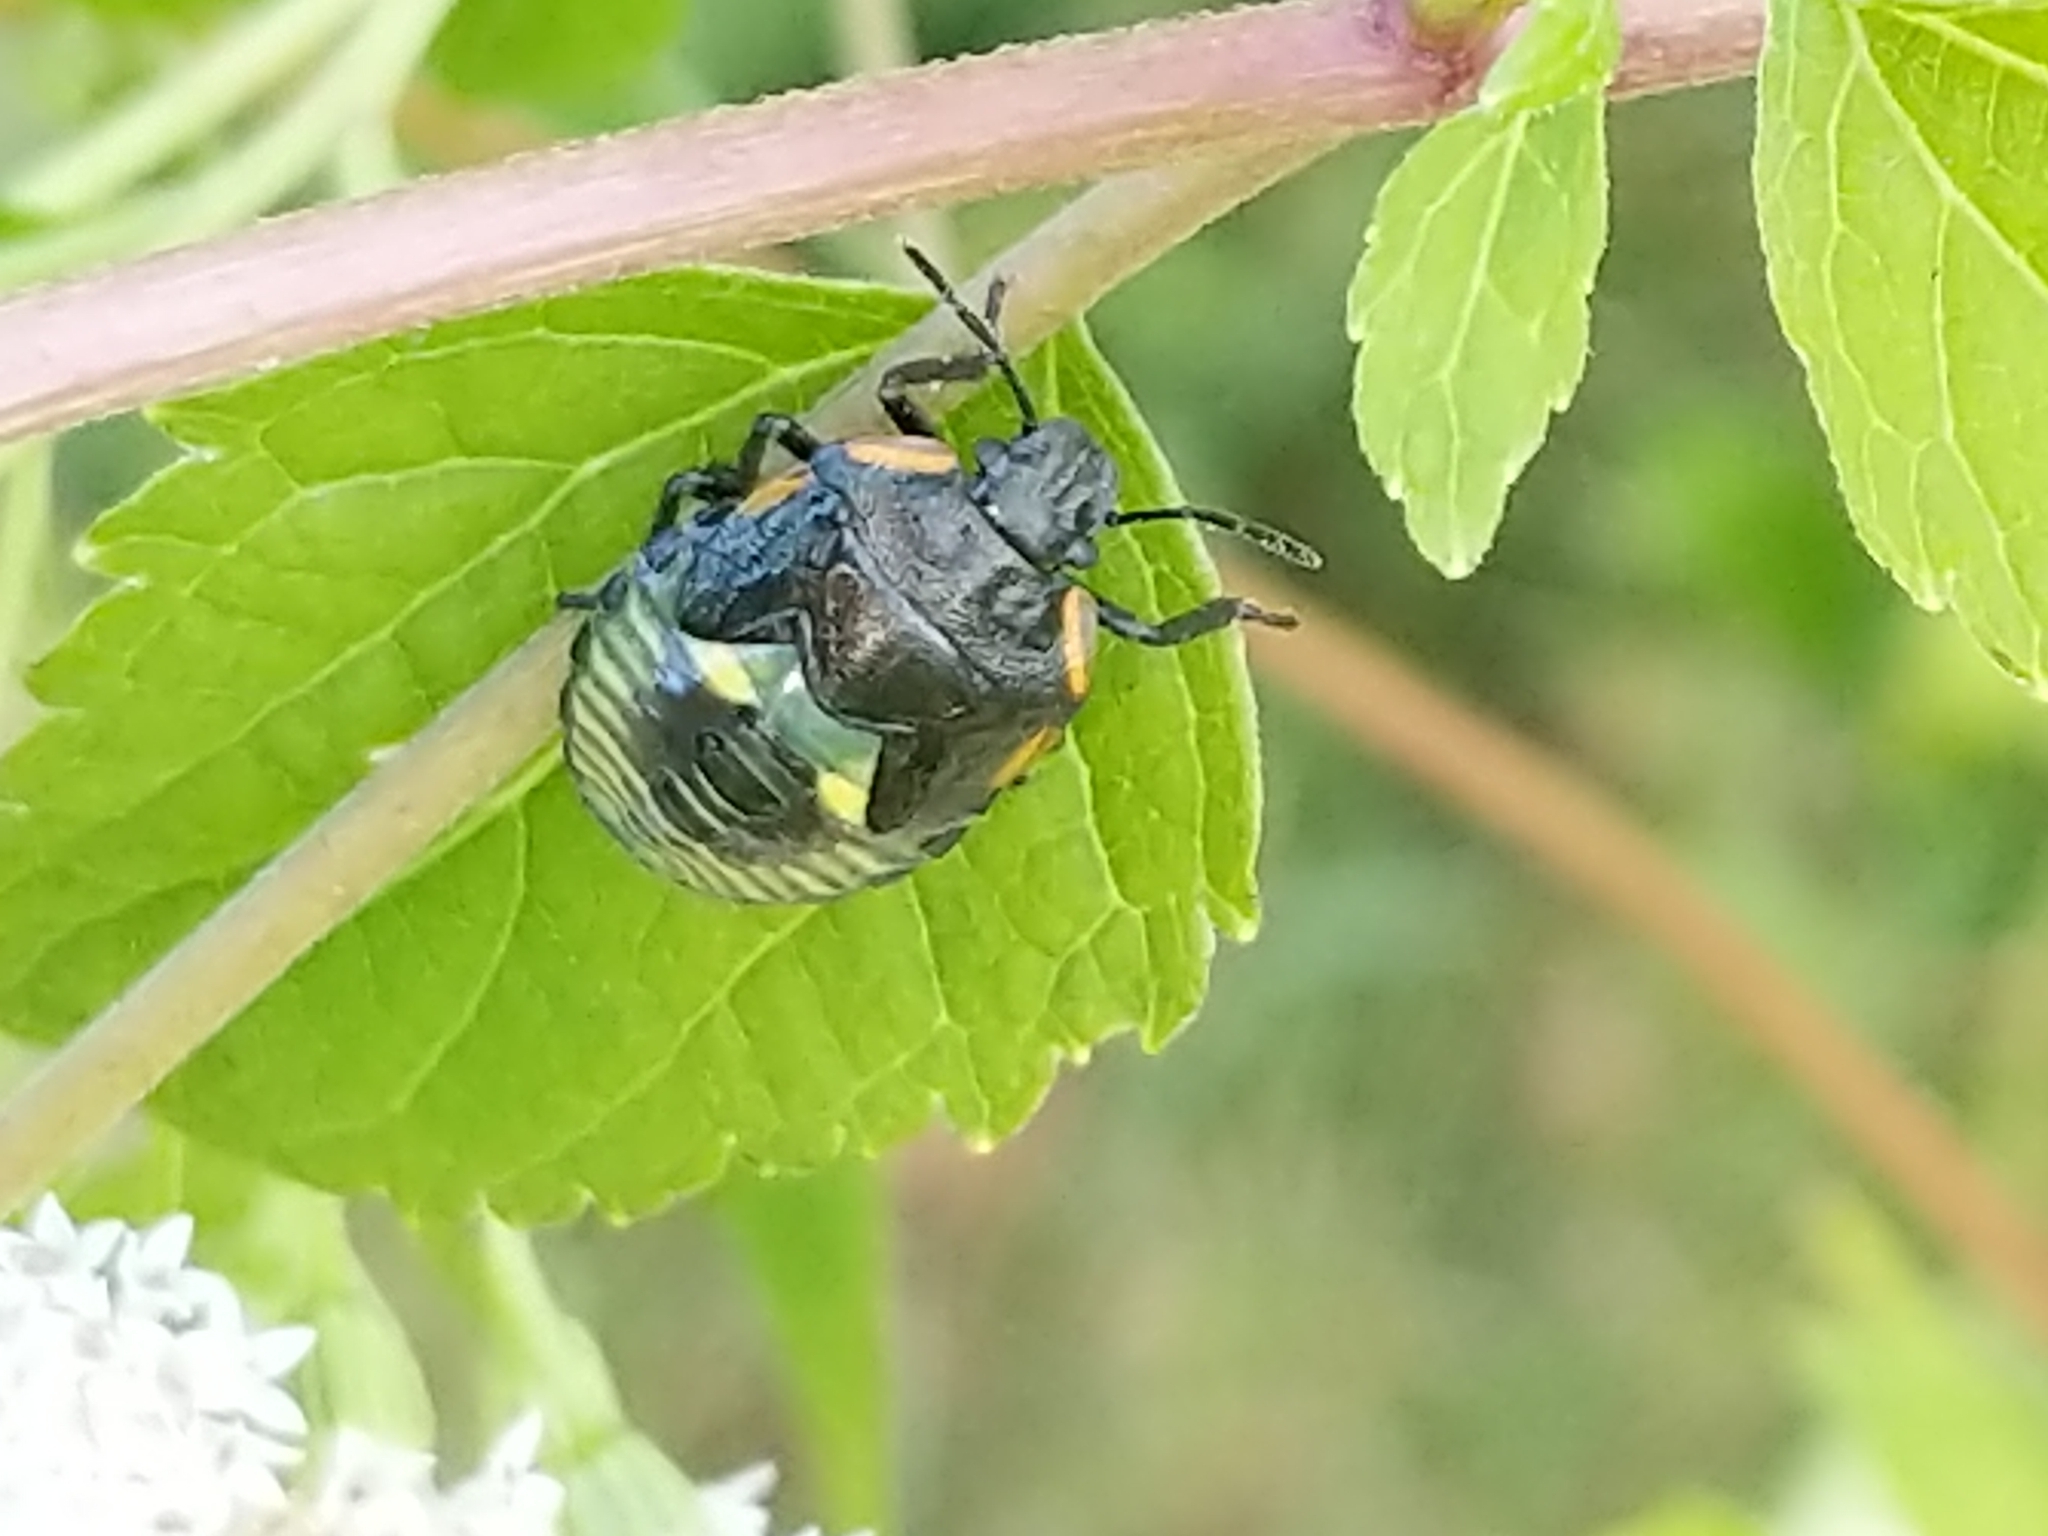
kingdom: Animalia
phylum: Arthropoda
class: Insecta
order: Hemiptera
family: Pentatomidae
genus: Chinavia
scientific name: Chinavia hilaris
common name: Green stink bug
